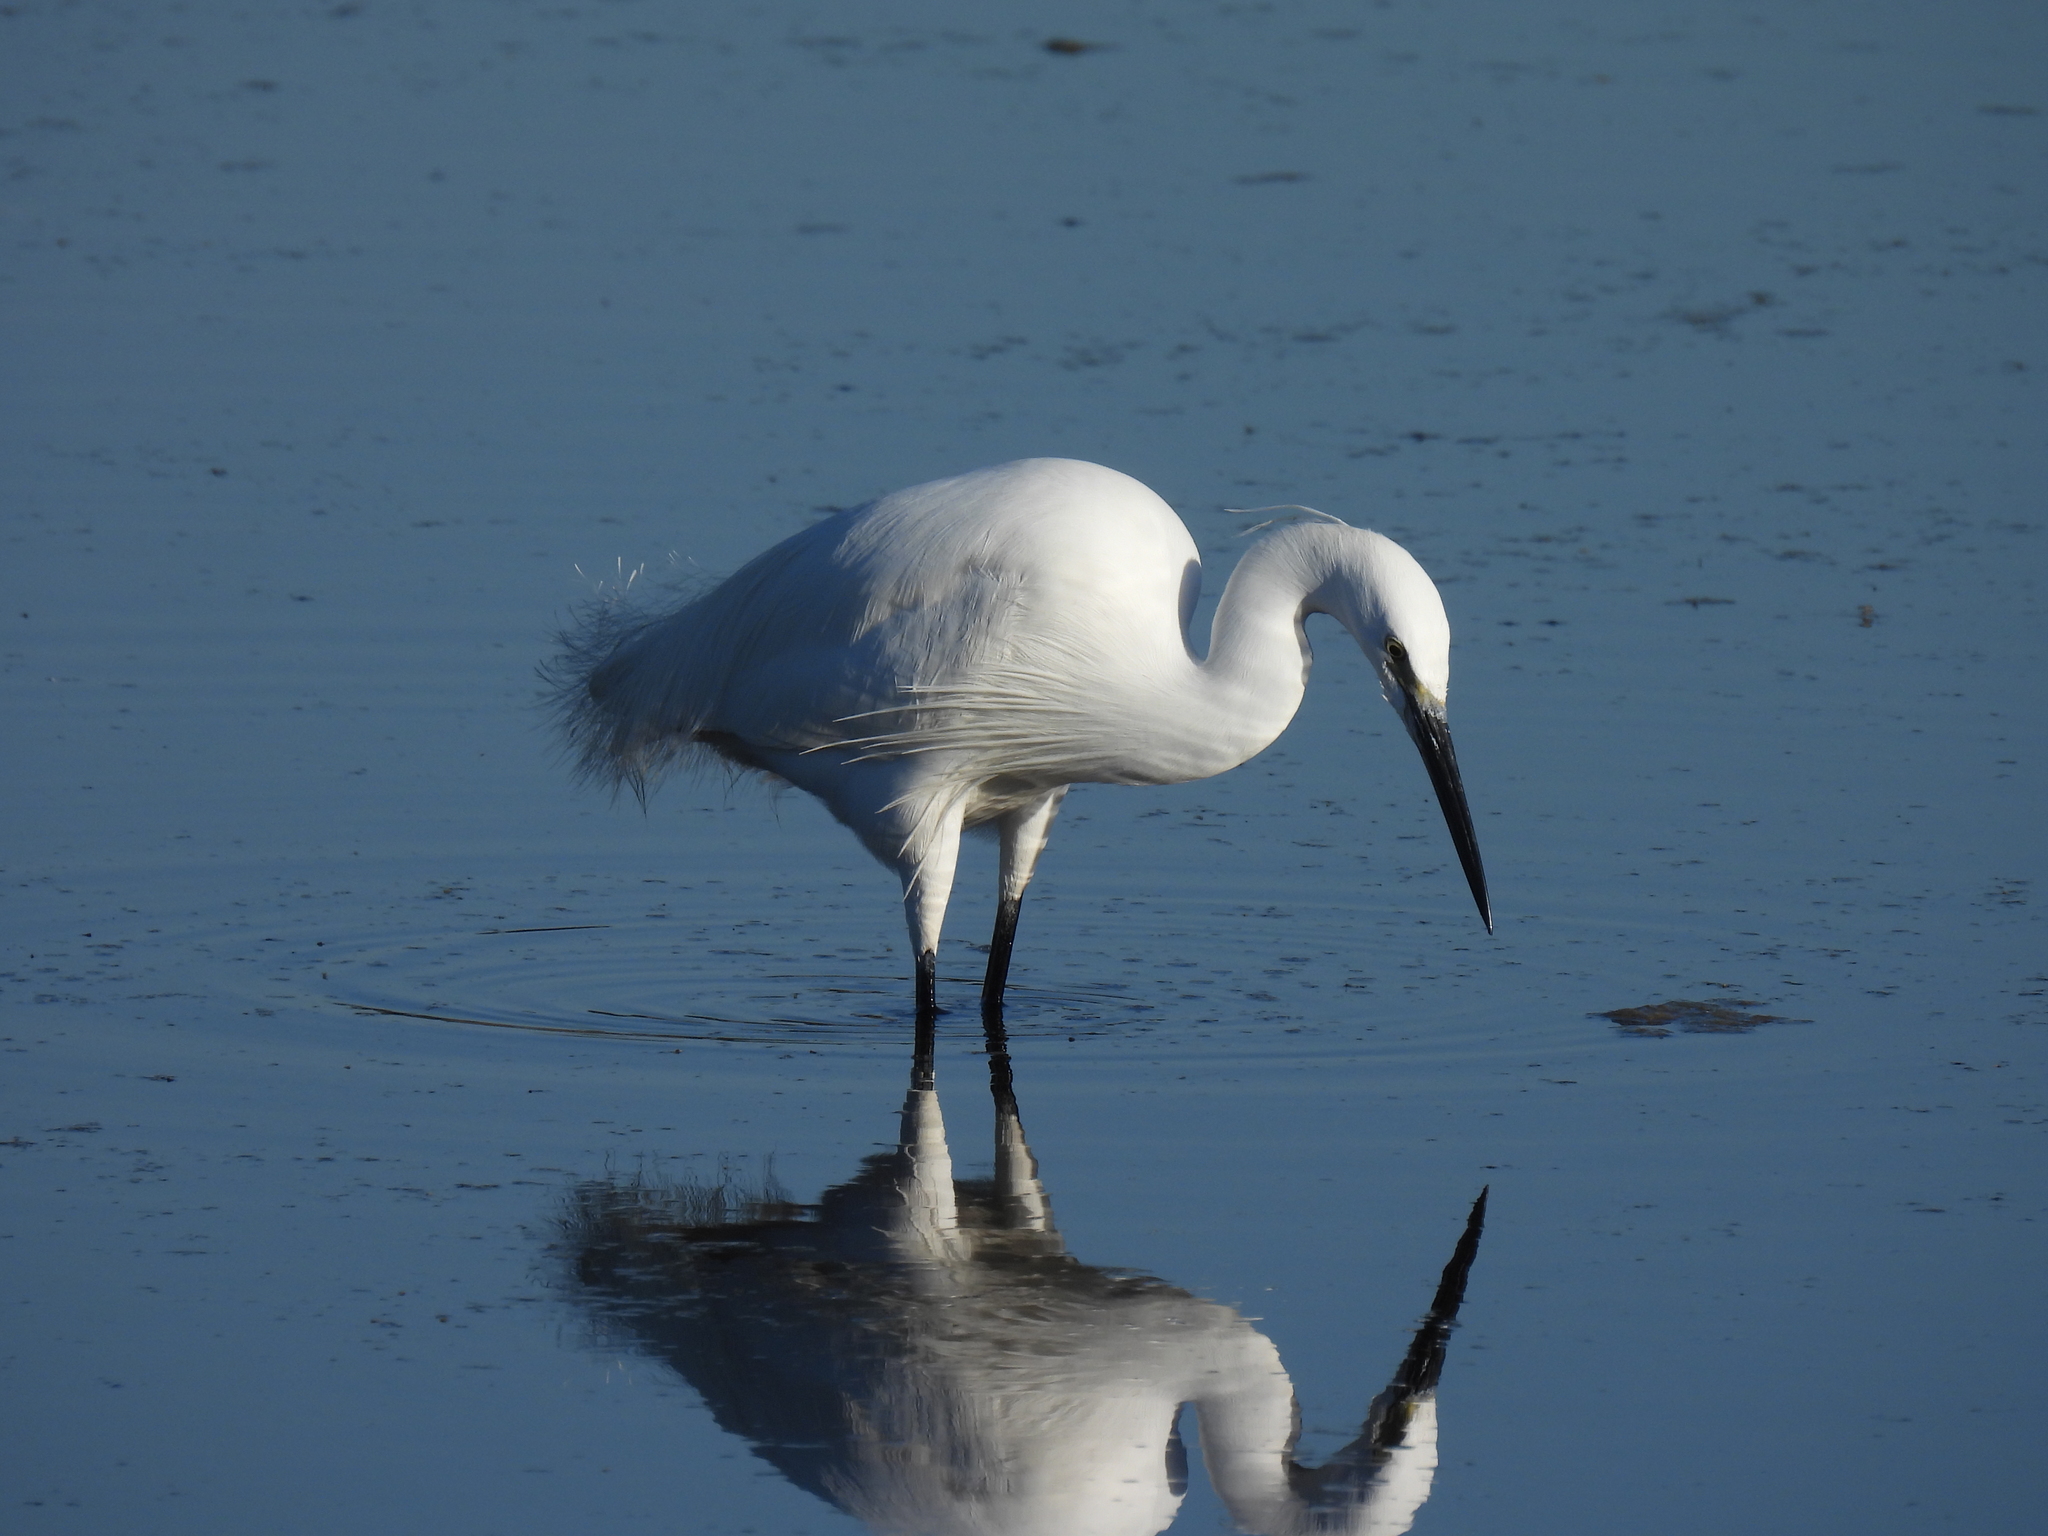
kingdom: Animalia
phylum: Chordata
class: Aves
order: Pelecaniformes
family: Ardeidae
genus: Egretta
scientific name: Egretta garzetta
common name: Little egret
